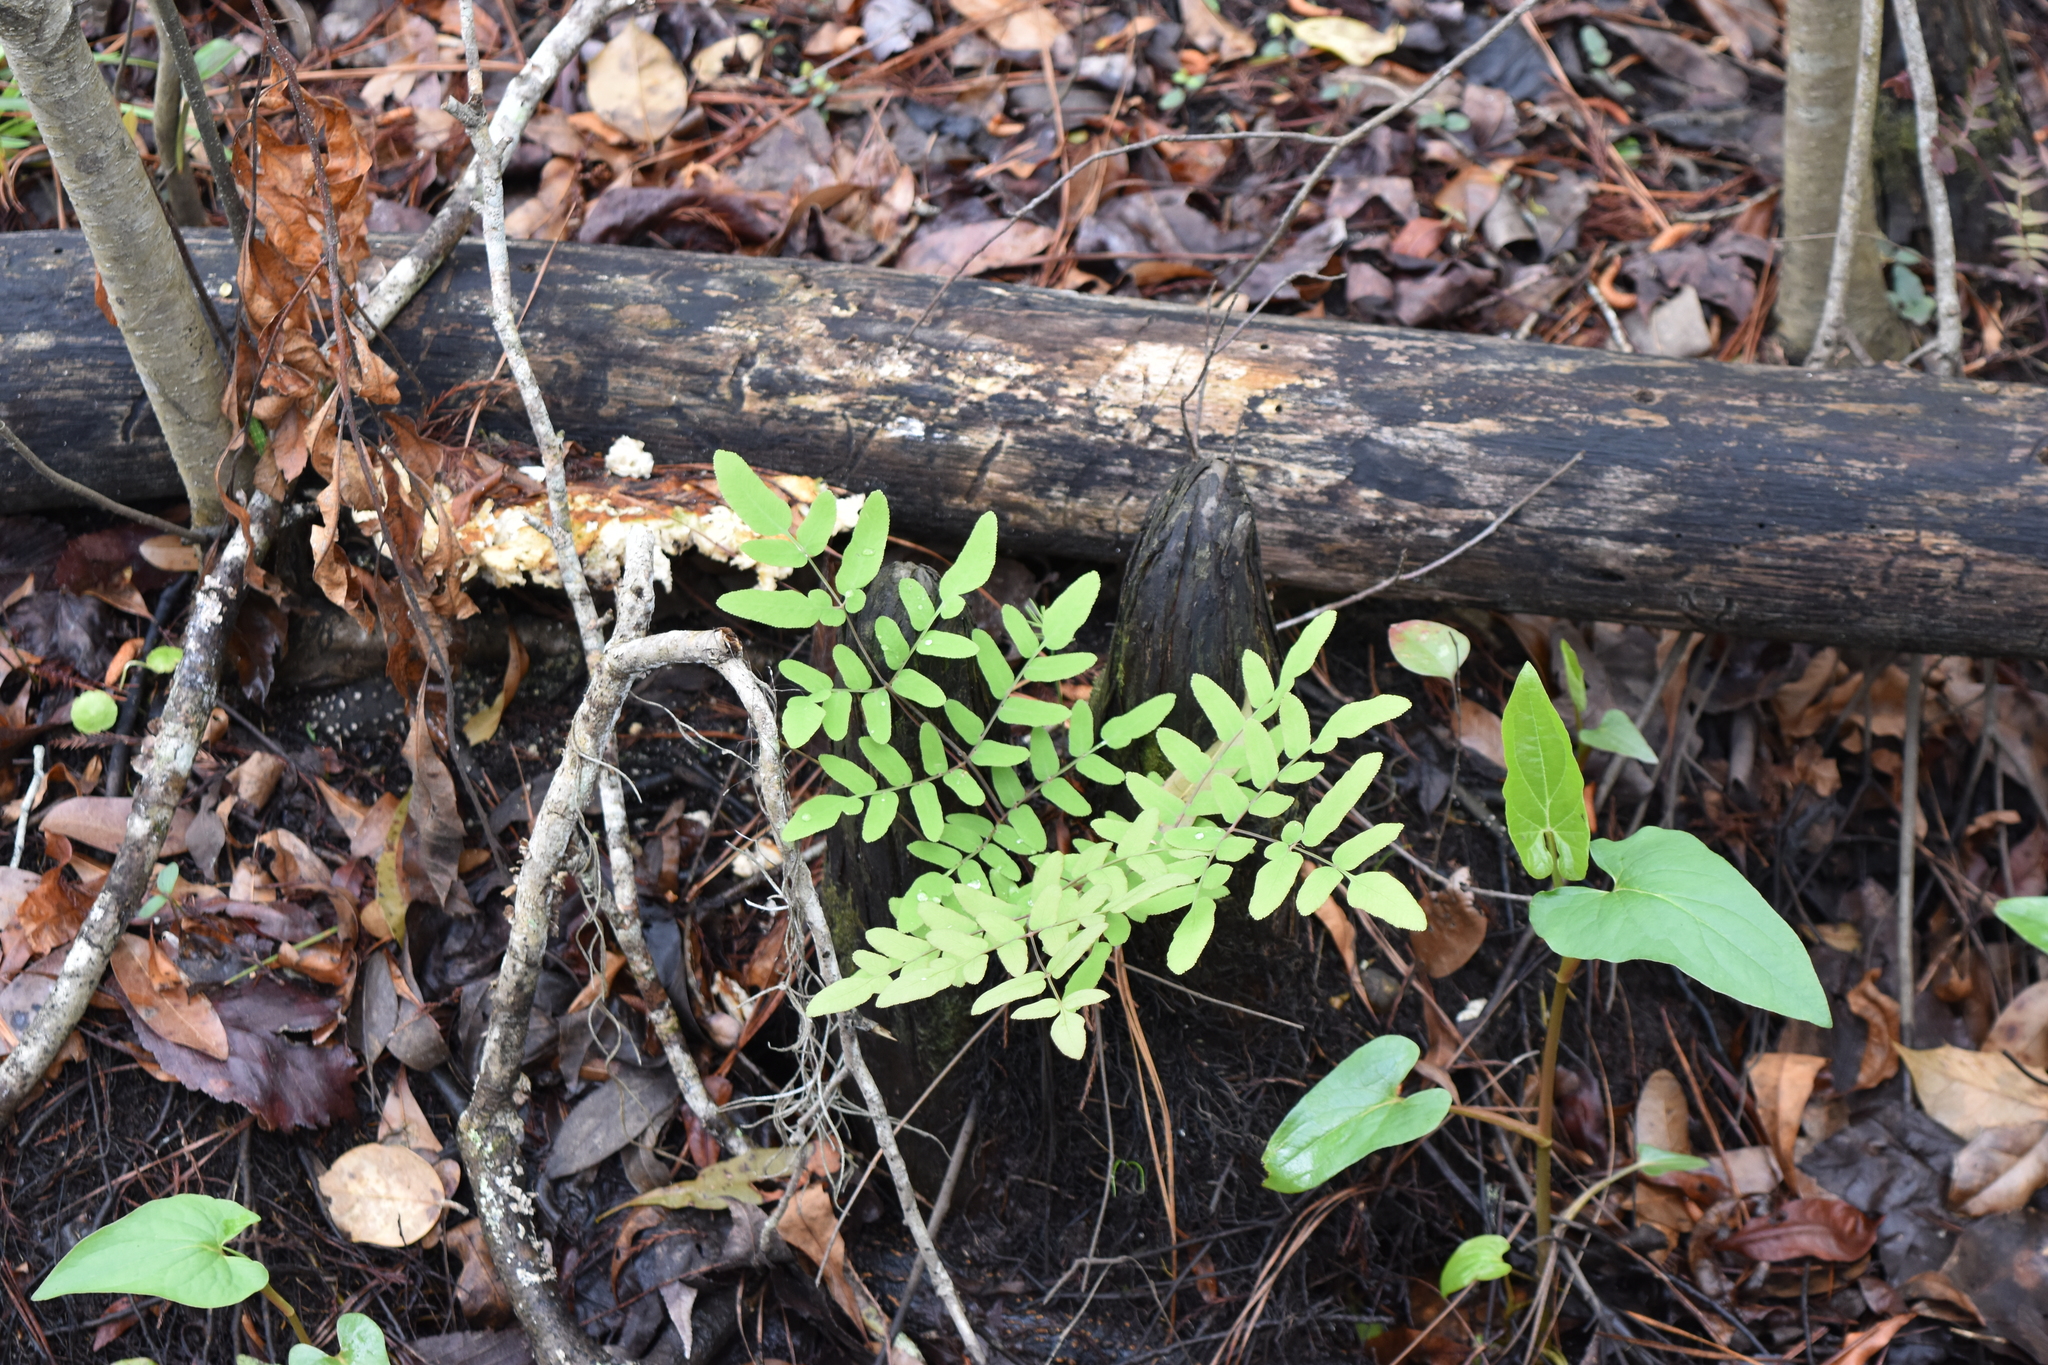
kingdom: Plantae
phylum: Tracheophyta
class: Polypodiopsida
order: Osmundales
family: Osmundaceae
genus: Osmunda
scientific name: Osmunda spectabilis
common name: American royal fern
